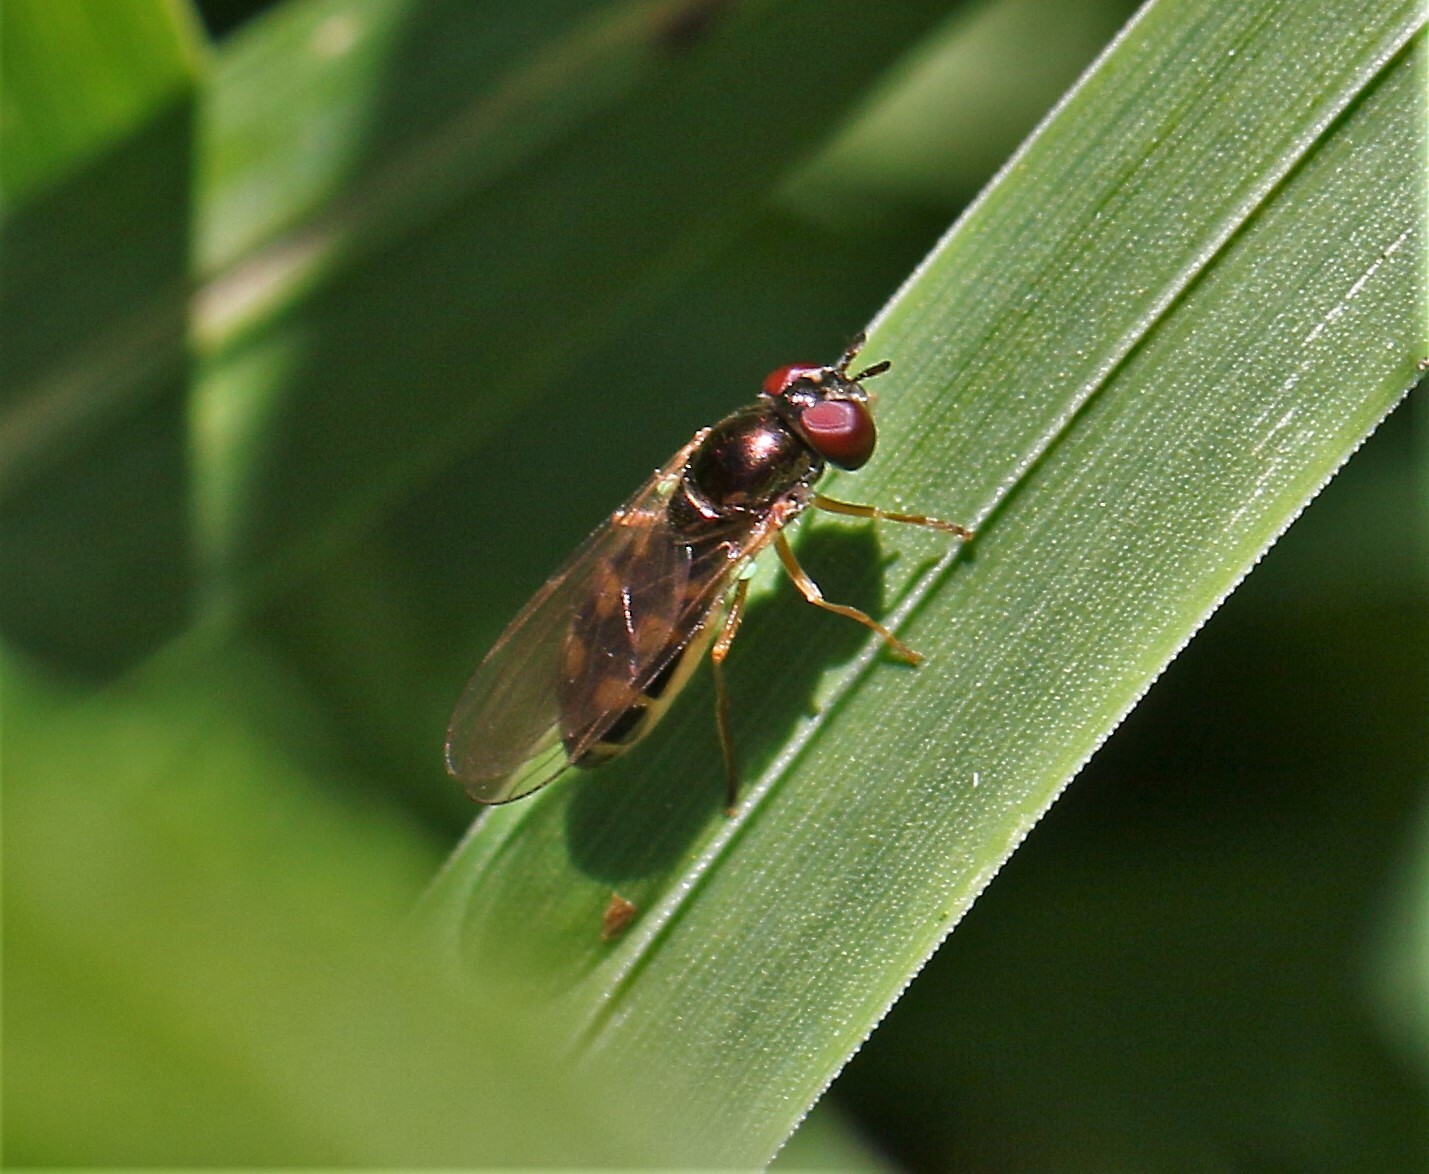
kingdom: Animalia
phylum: Arthropoda
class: Insecta
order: Diptera
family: Syrphidae
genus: Melanostoma
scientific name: Melanostoma mellina
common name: Hover fly
